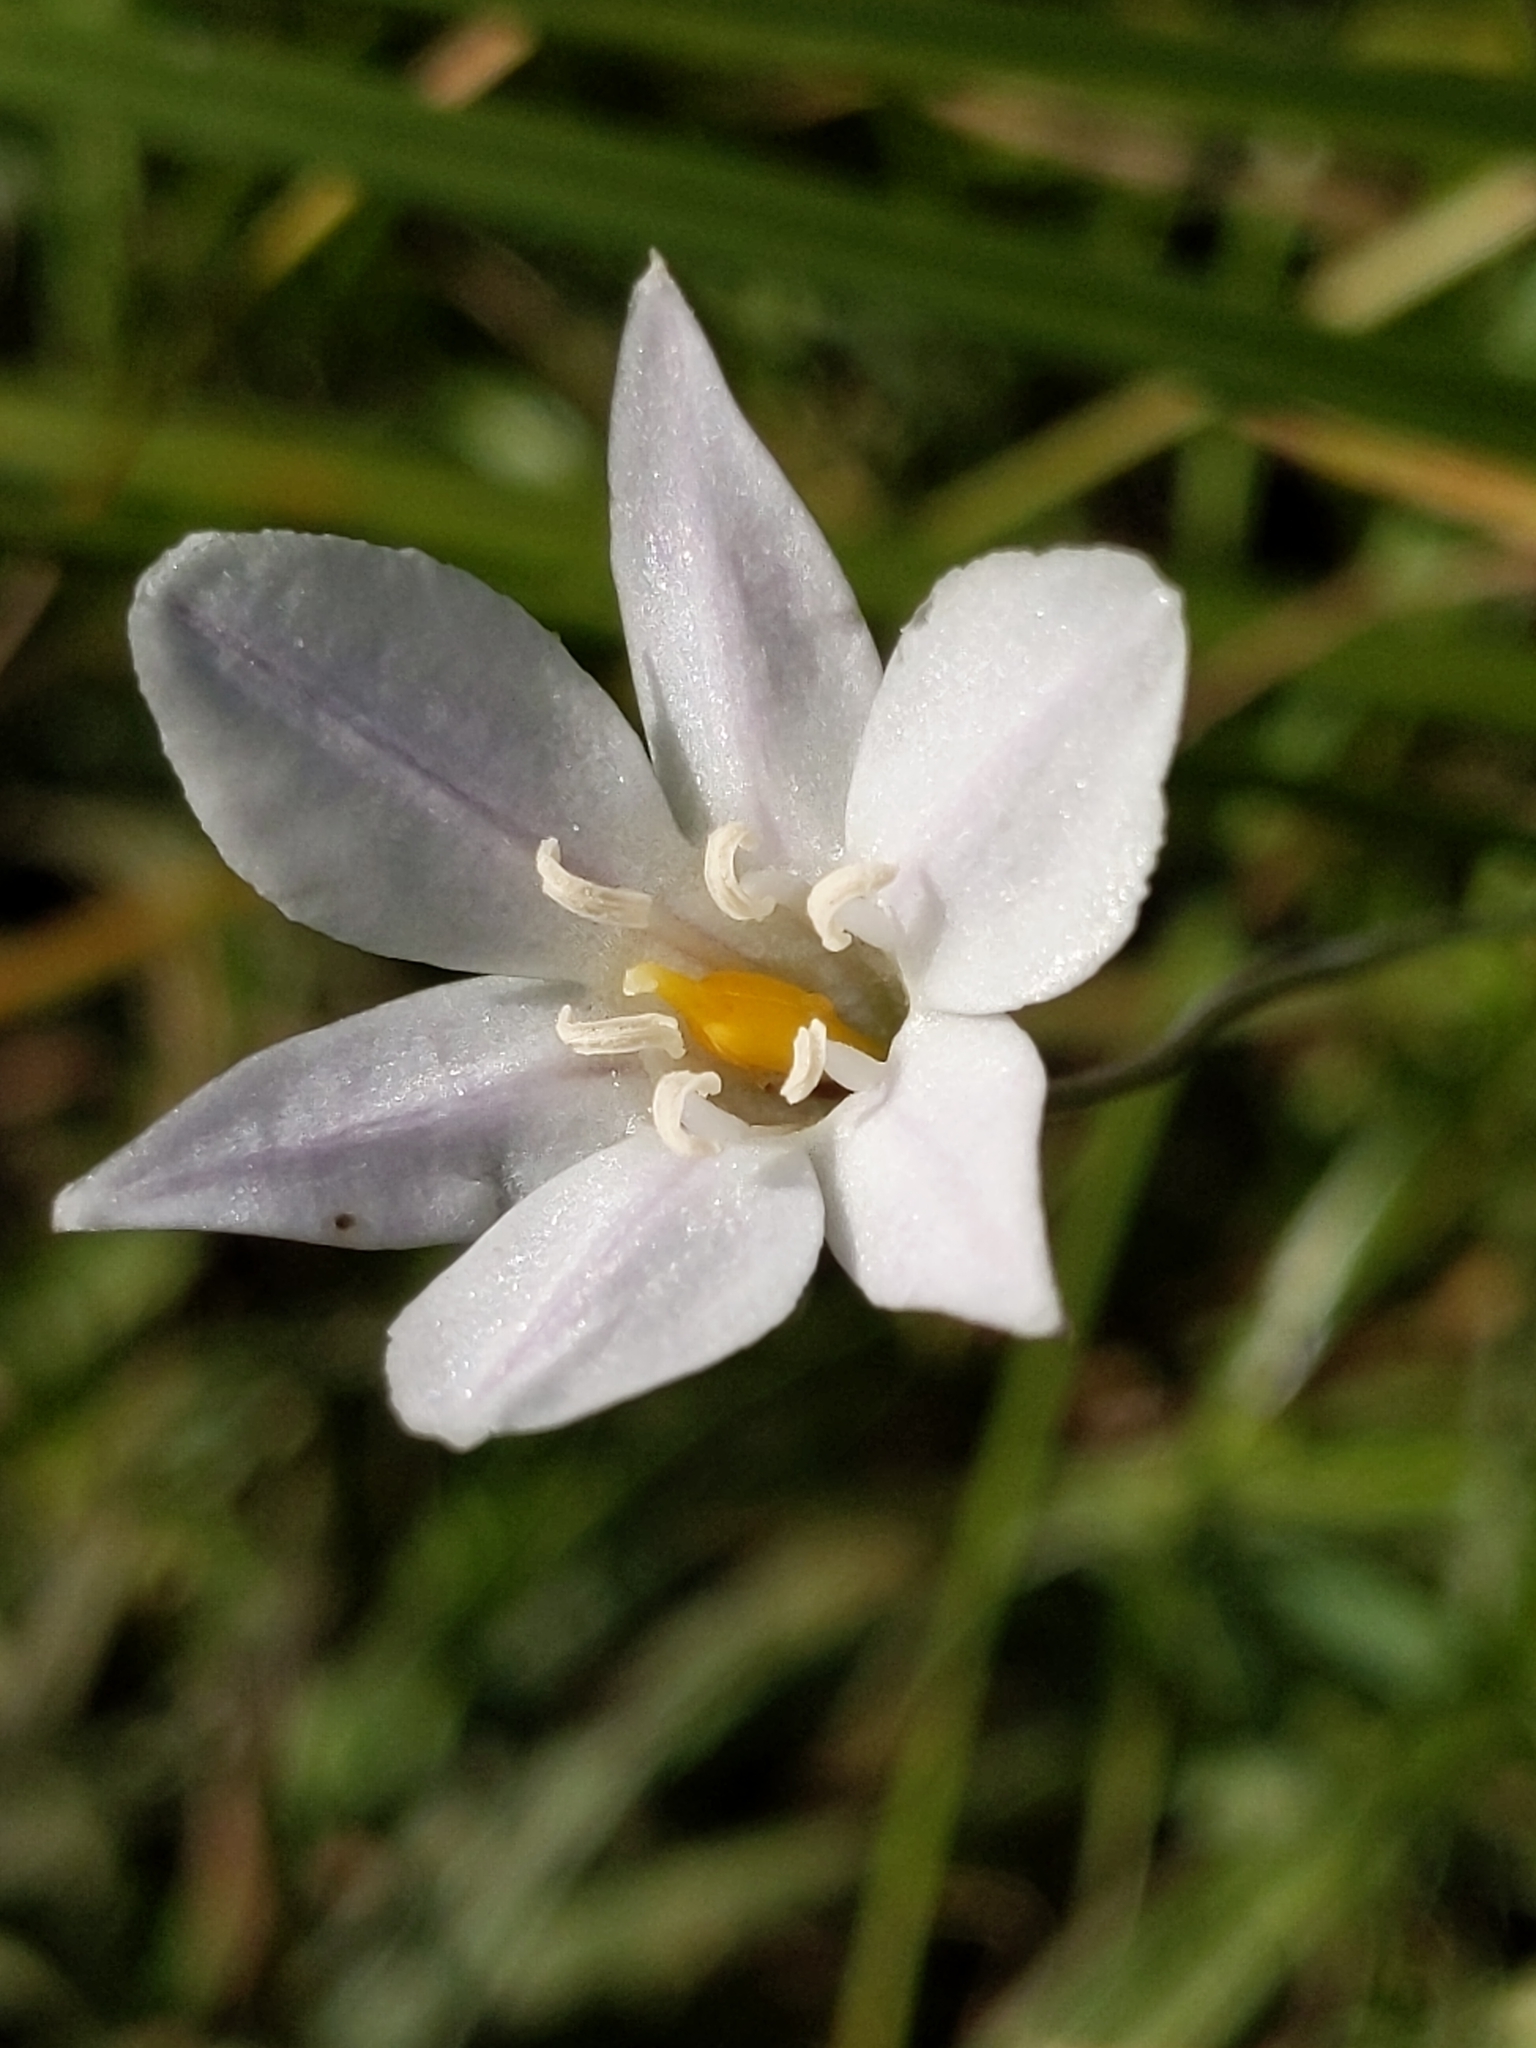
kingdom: Plantae
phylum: Tracheophyta
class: Liliopsida
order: Asparagales
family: Asparagaceae
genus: Triteleia
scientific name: Triteleia peduncularis
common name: Long-ray brodiaea
